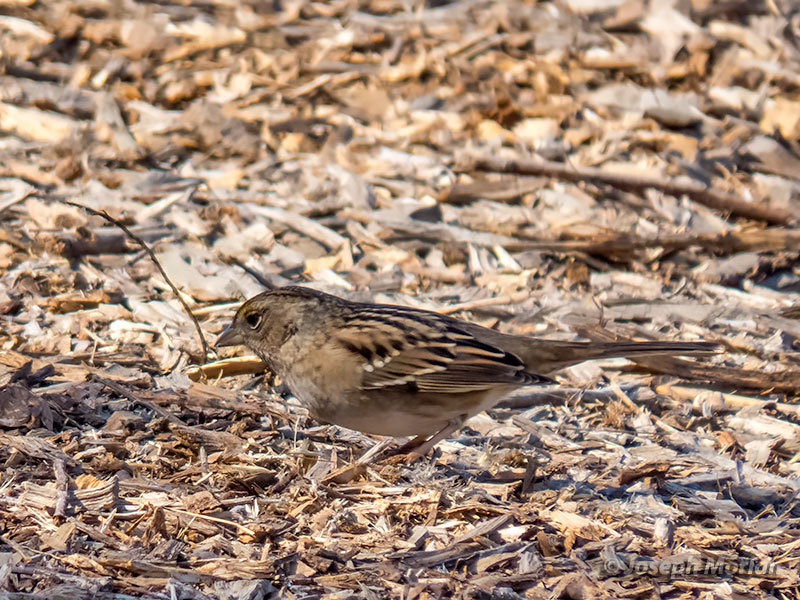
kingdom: Animalia
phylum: Chordata
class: Aves
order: Passeriformes
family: Passerellidae
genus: Zonotrichia
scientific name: Zonotrichia atricapilla
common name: Golden-crowned sparrow
